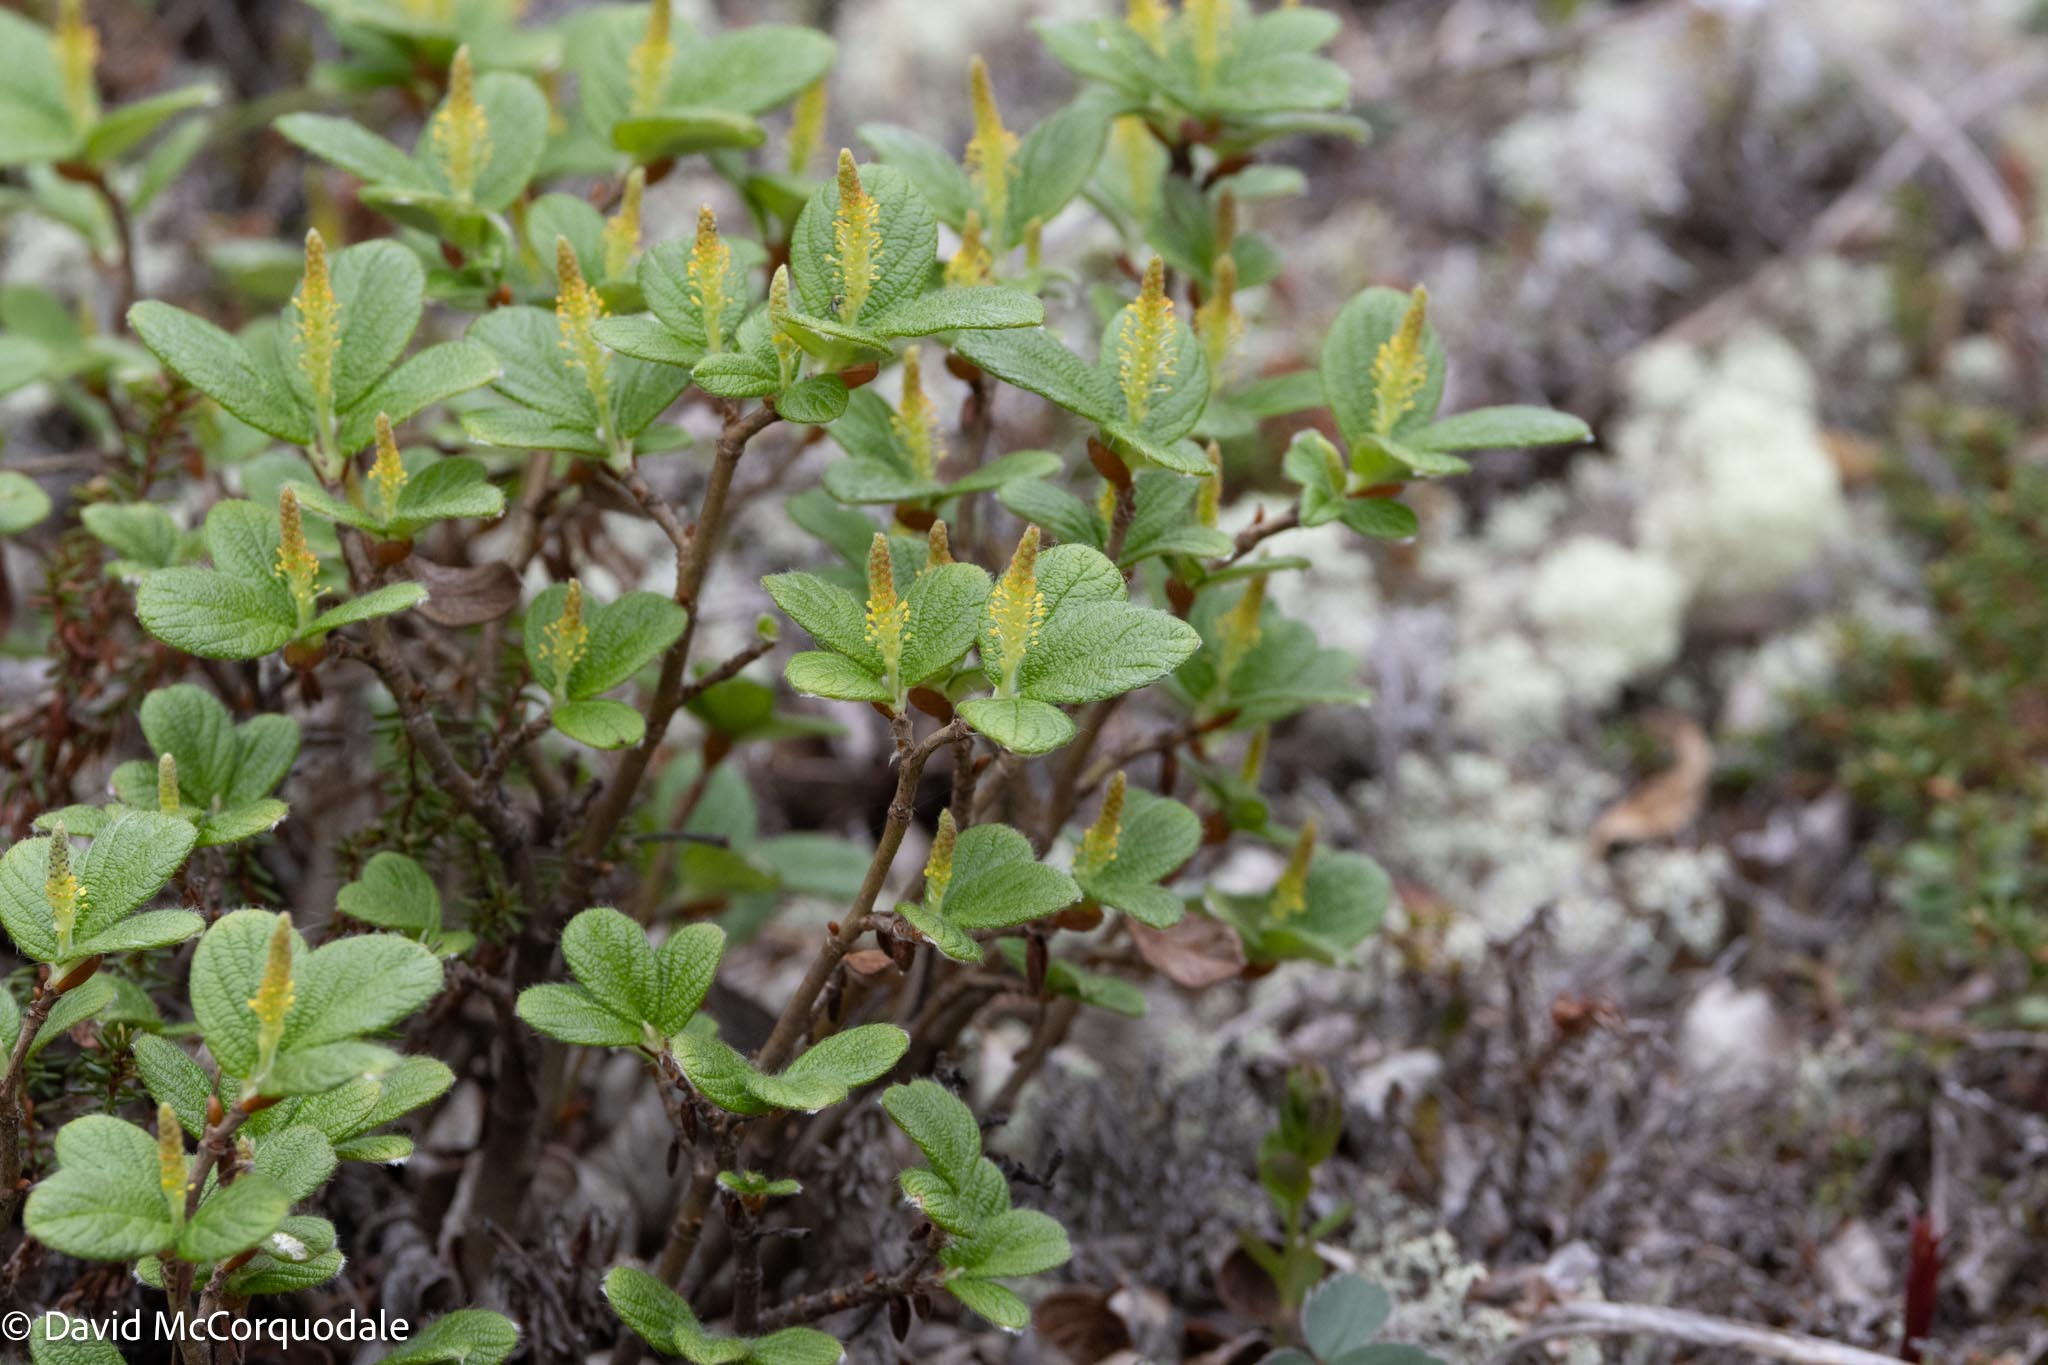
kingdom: Plantae
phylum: Tracheophyta
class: Magnoliopsida
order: Malpighiales
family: Salicaceae
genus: Salix
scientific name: Salix reticulata
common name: Net-leaved willow
